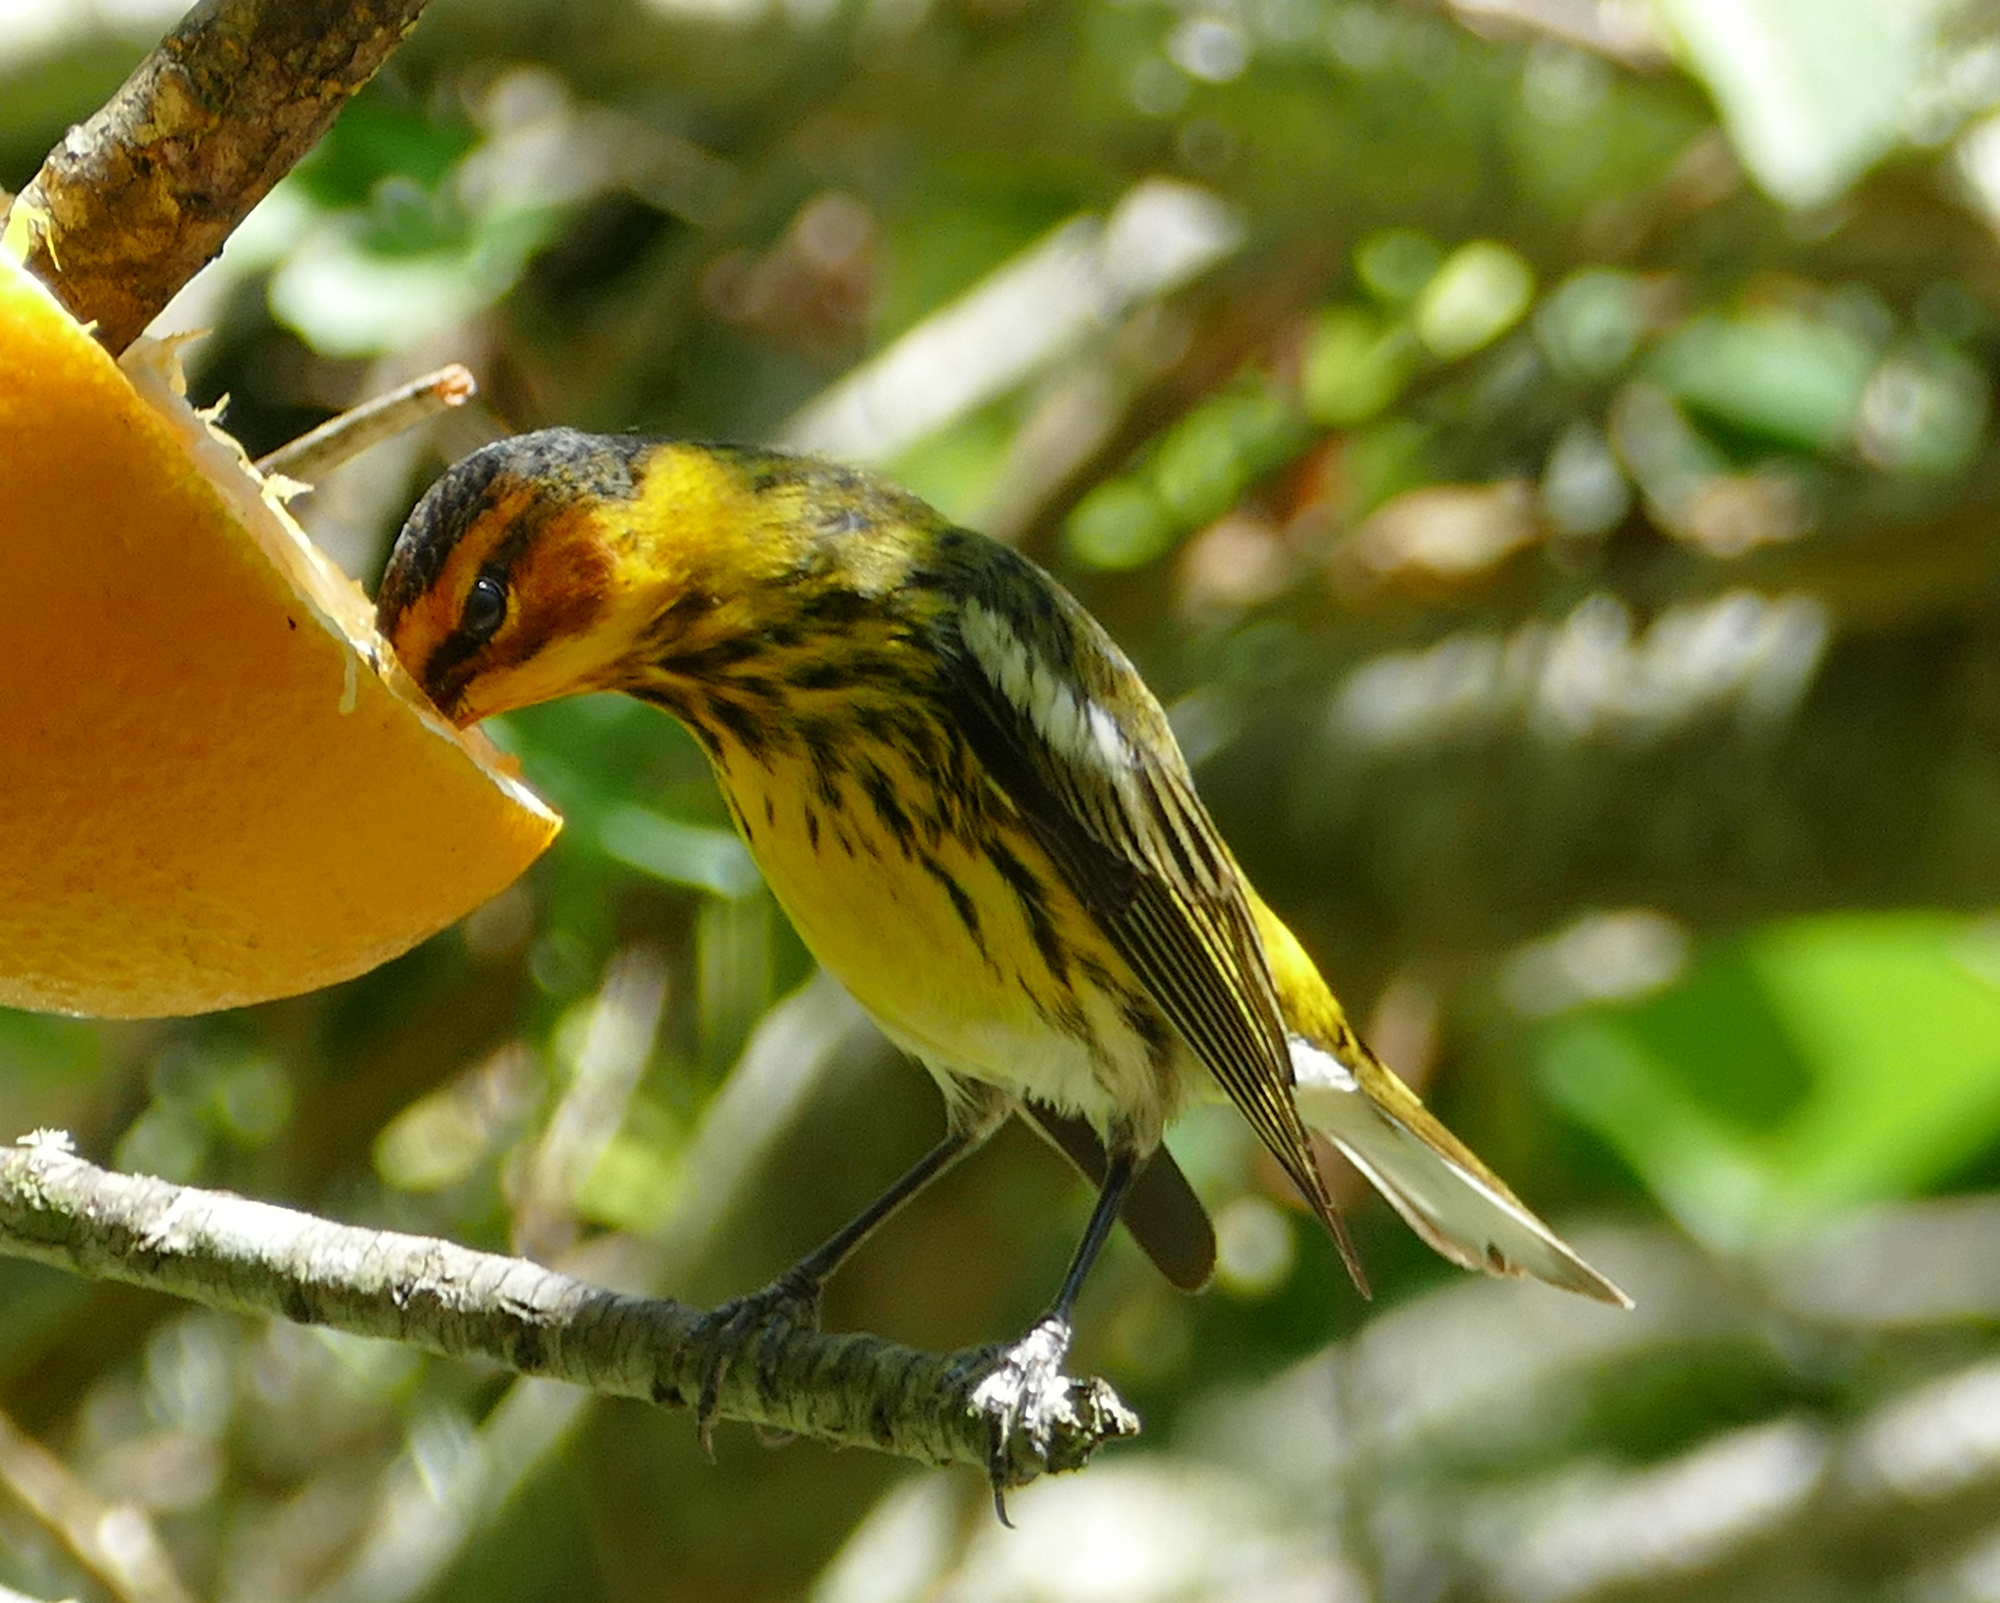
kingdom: Animalia
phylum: Chordata
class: Aves
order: Passeriformes
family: Parulidae
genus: Setophaga
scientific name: Setophaga tigrina
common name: Cape may warbler
